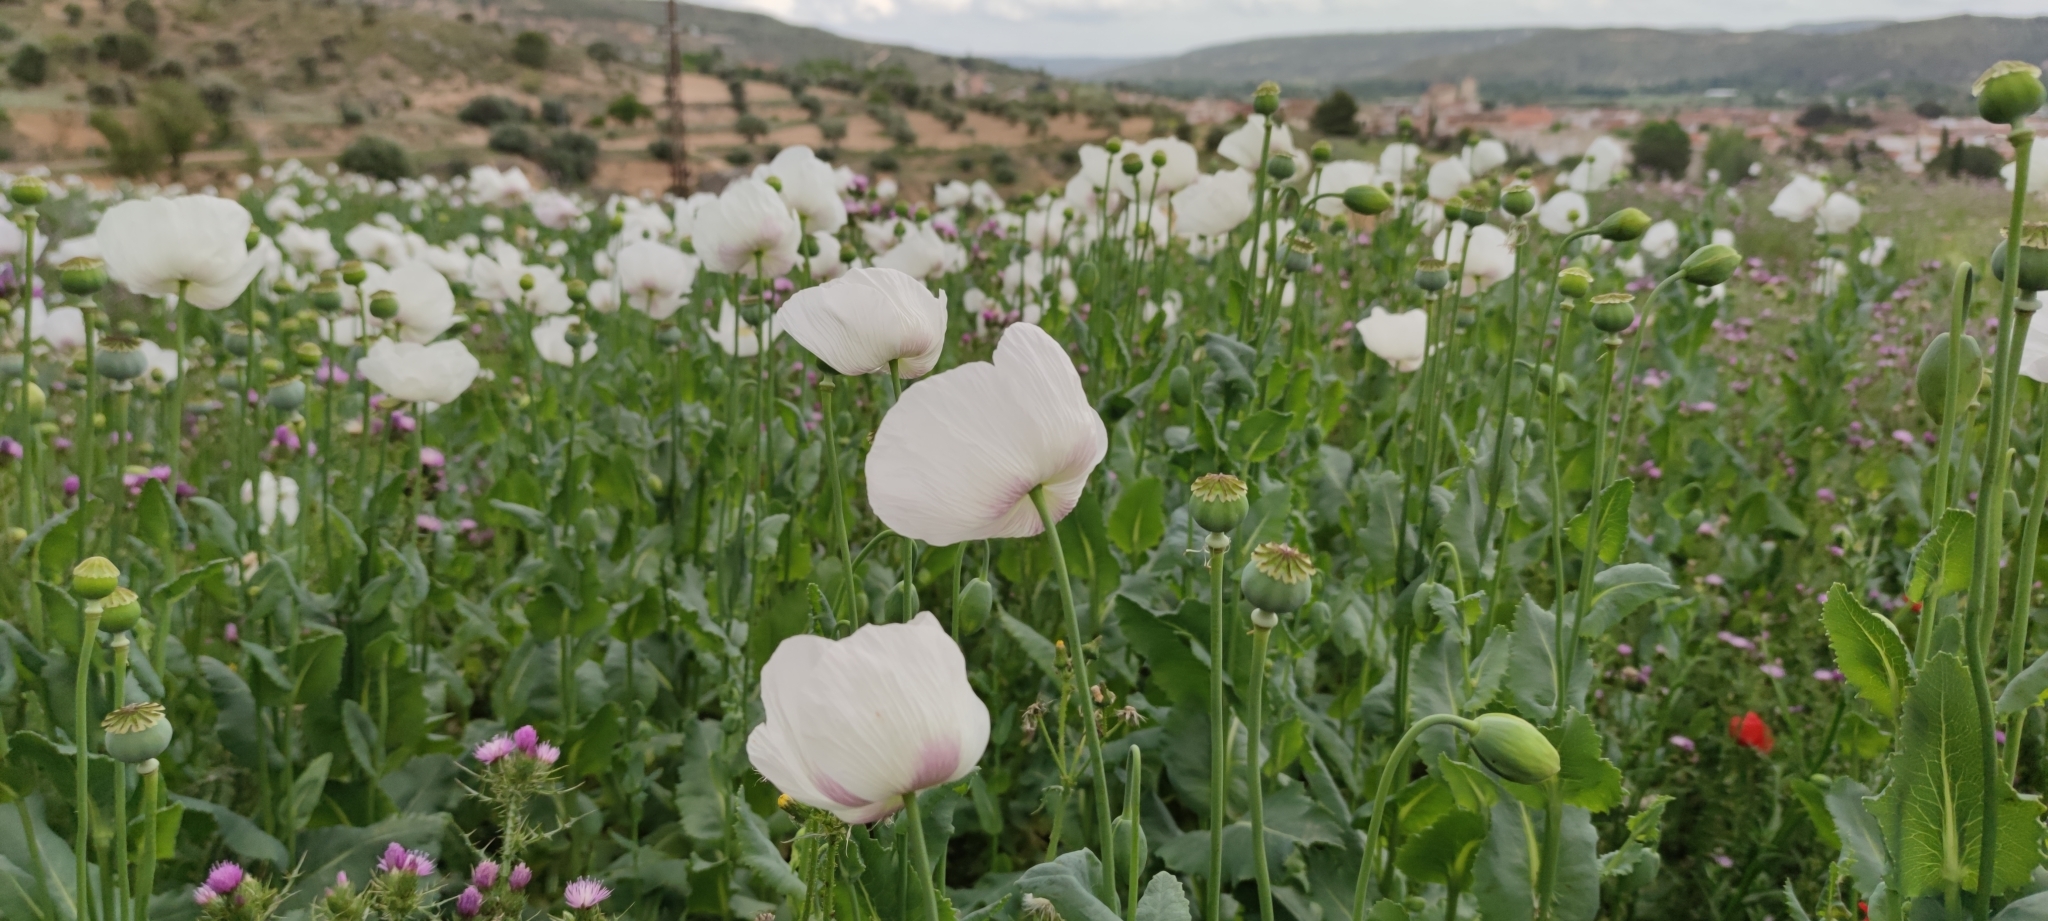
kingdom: Plantae
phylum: Tracheophyta
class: Magnoliopsida
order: Ranunculales
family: Papaveraceae
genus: Papaver
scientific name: Papaver somniferum
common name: Opium poppy
